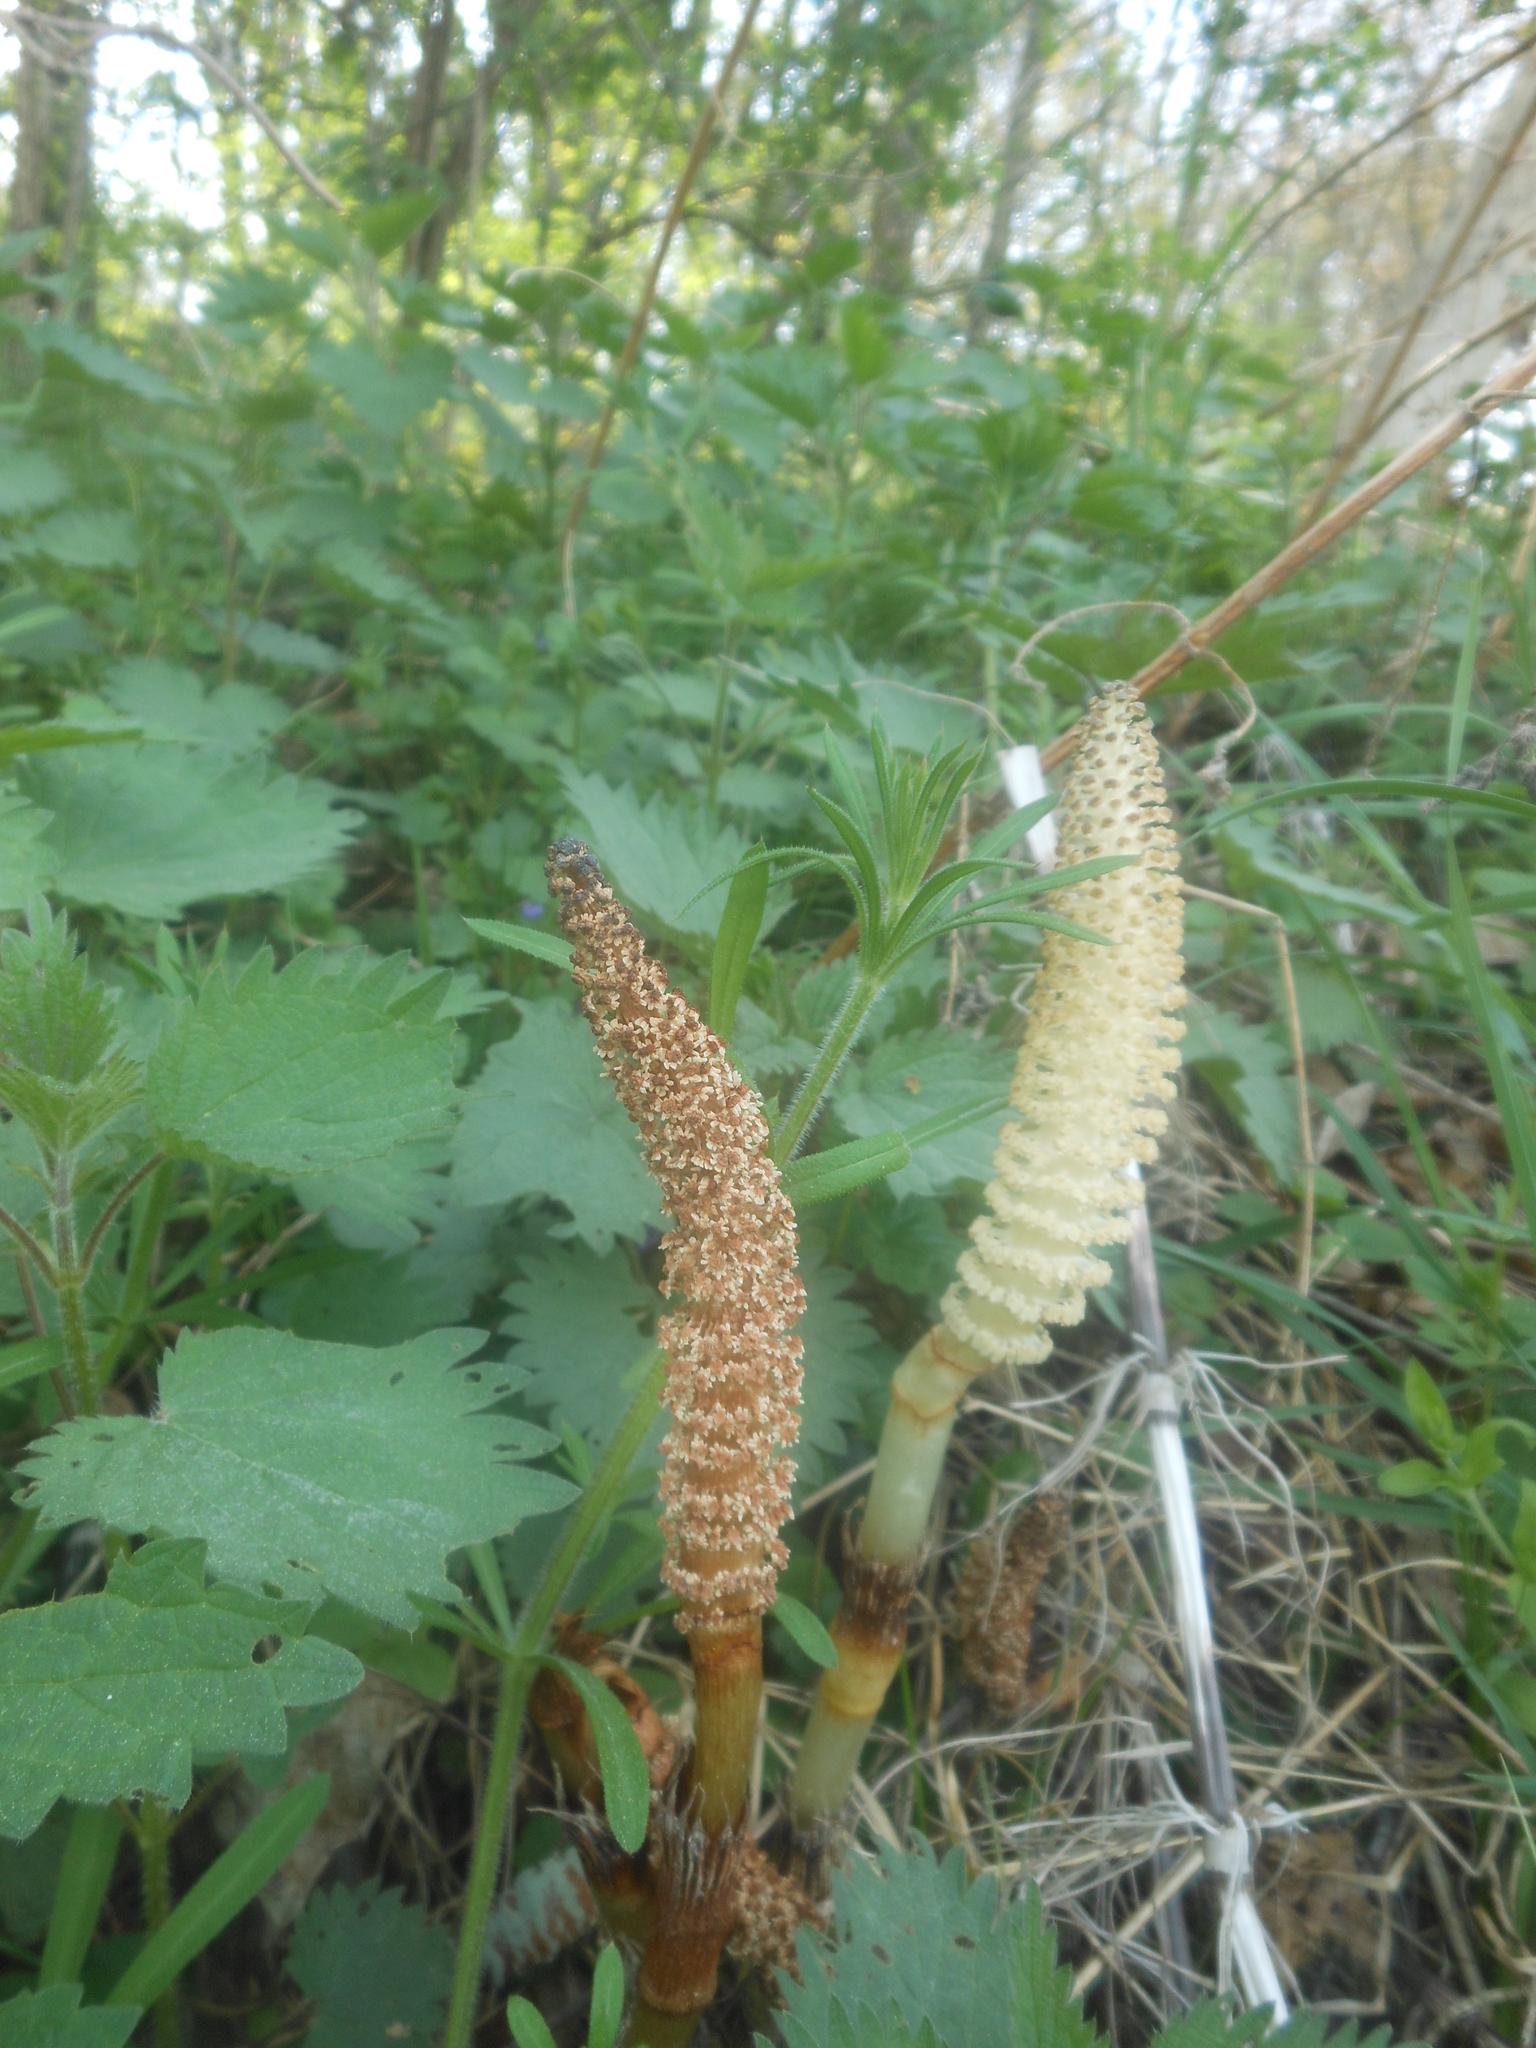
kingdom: Plantae
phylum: Tracheophyta
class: Polypodiopsida
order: Equisetales
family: Equisetaceae
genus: Equisetum
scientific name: Equisetum telmateia
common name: Great horsetail
